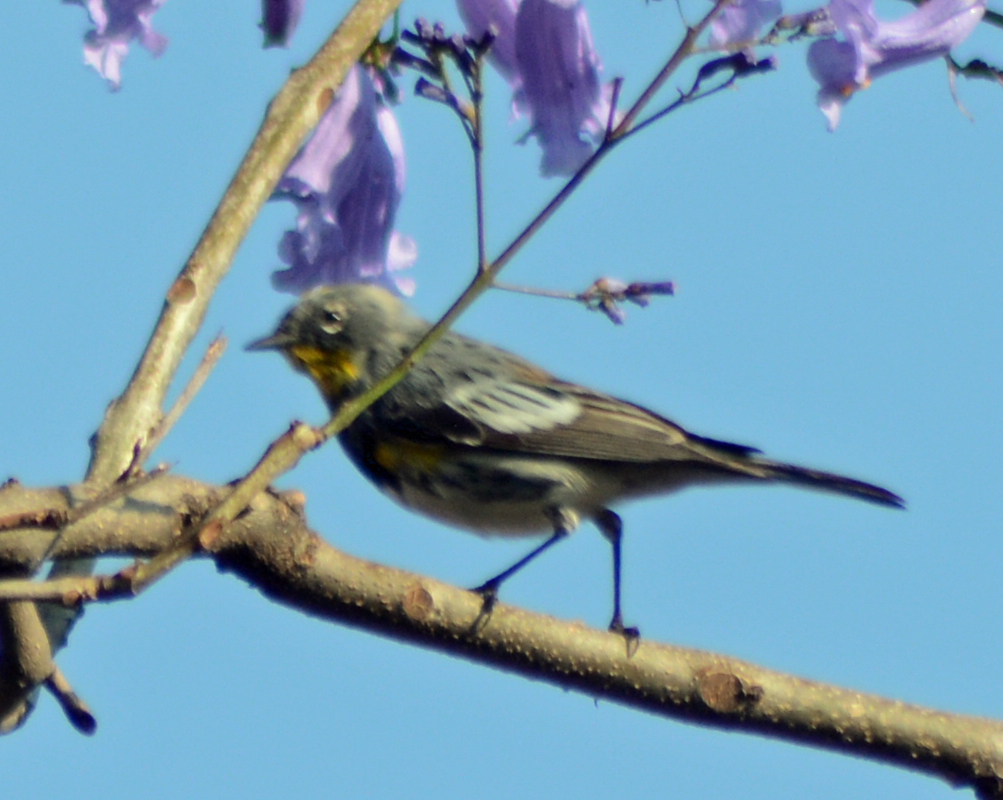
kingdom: Animalia
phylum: Chordata
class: Aves
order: Passeriformes
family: Parulidae
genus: Setophaga
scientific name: Setophaga auduboni
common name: Audubon's warbler
